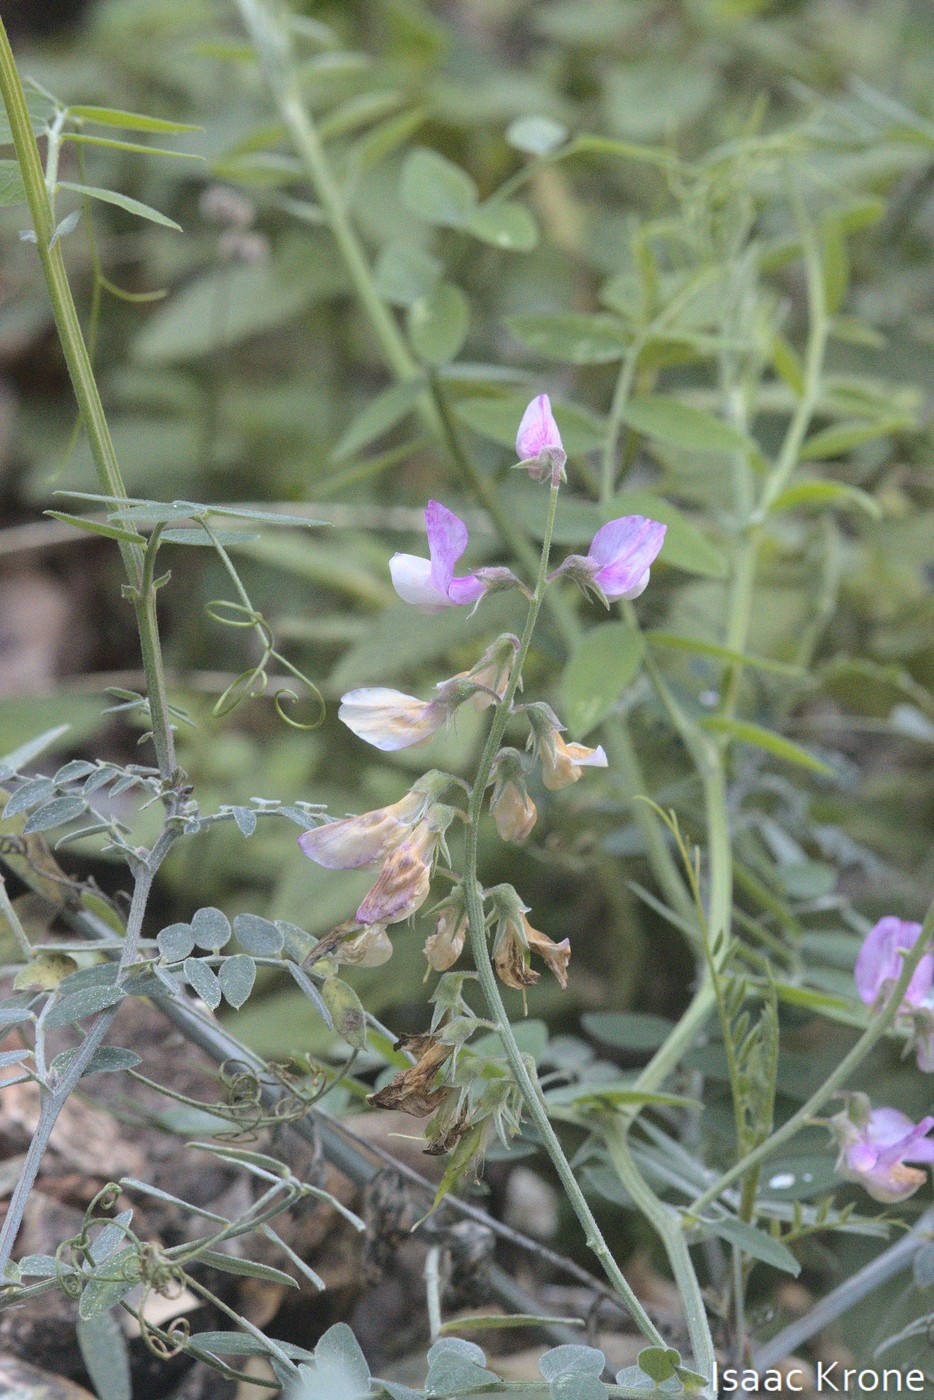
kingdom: Plantae
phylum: Tracheophyta
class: Magnoliopsida
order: Fabales
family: Fabaceae
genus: Lathyrus
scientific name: Lathyrus vestitus
